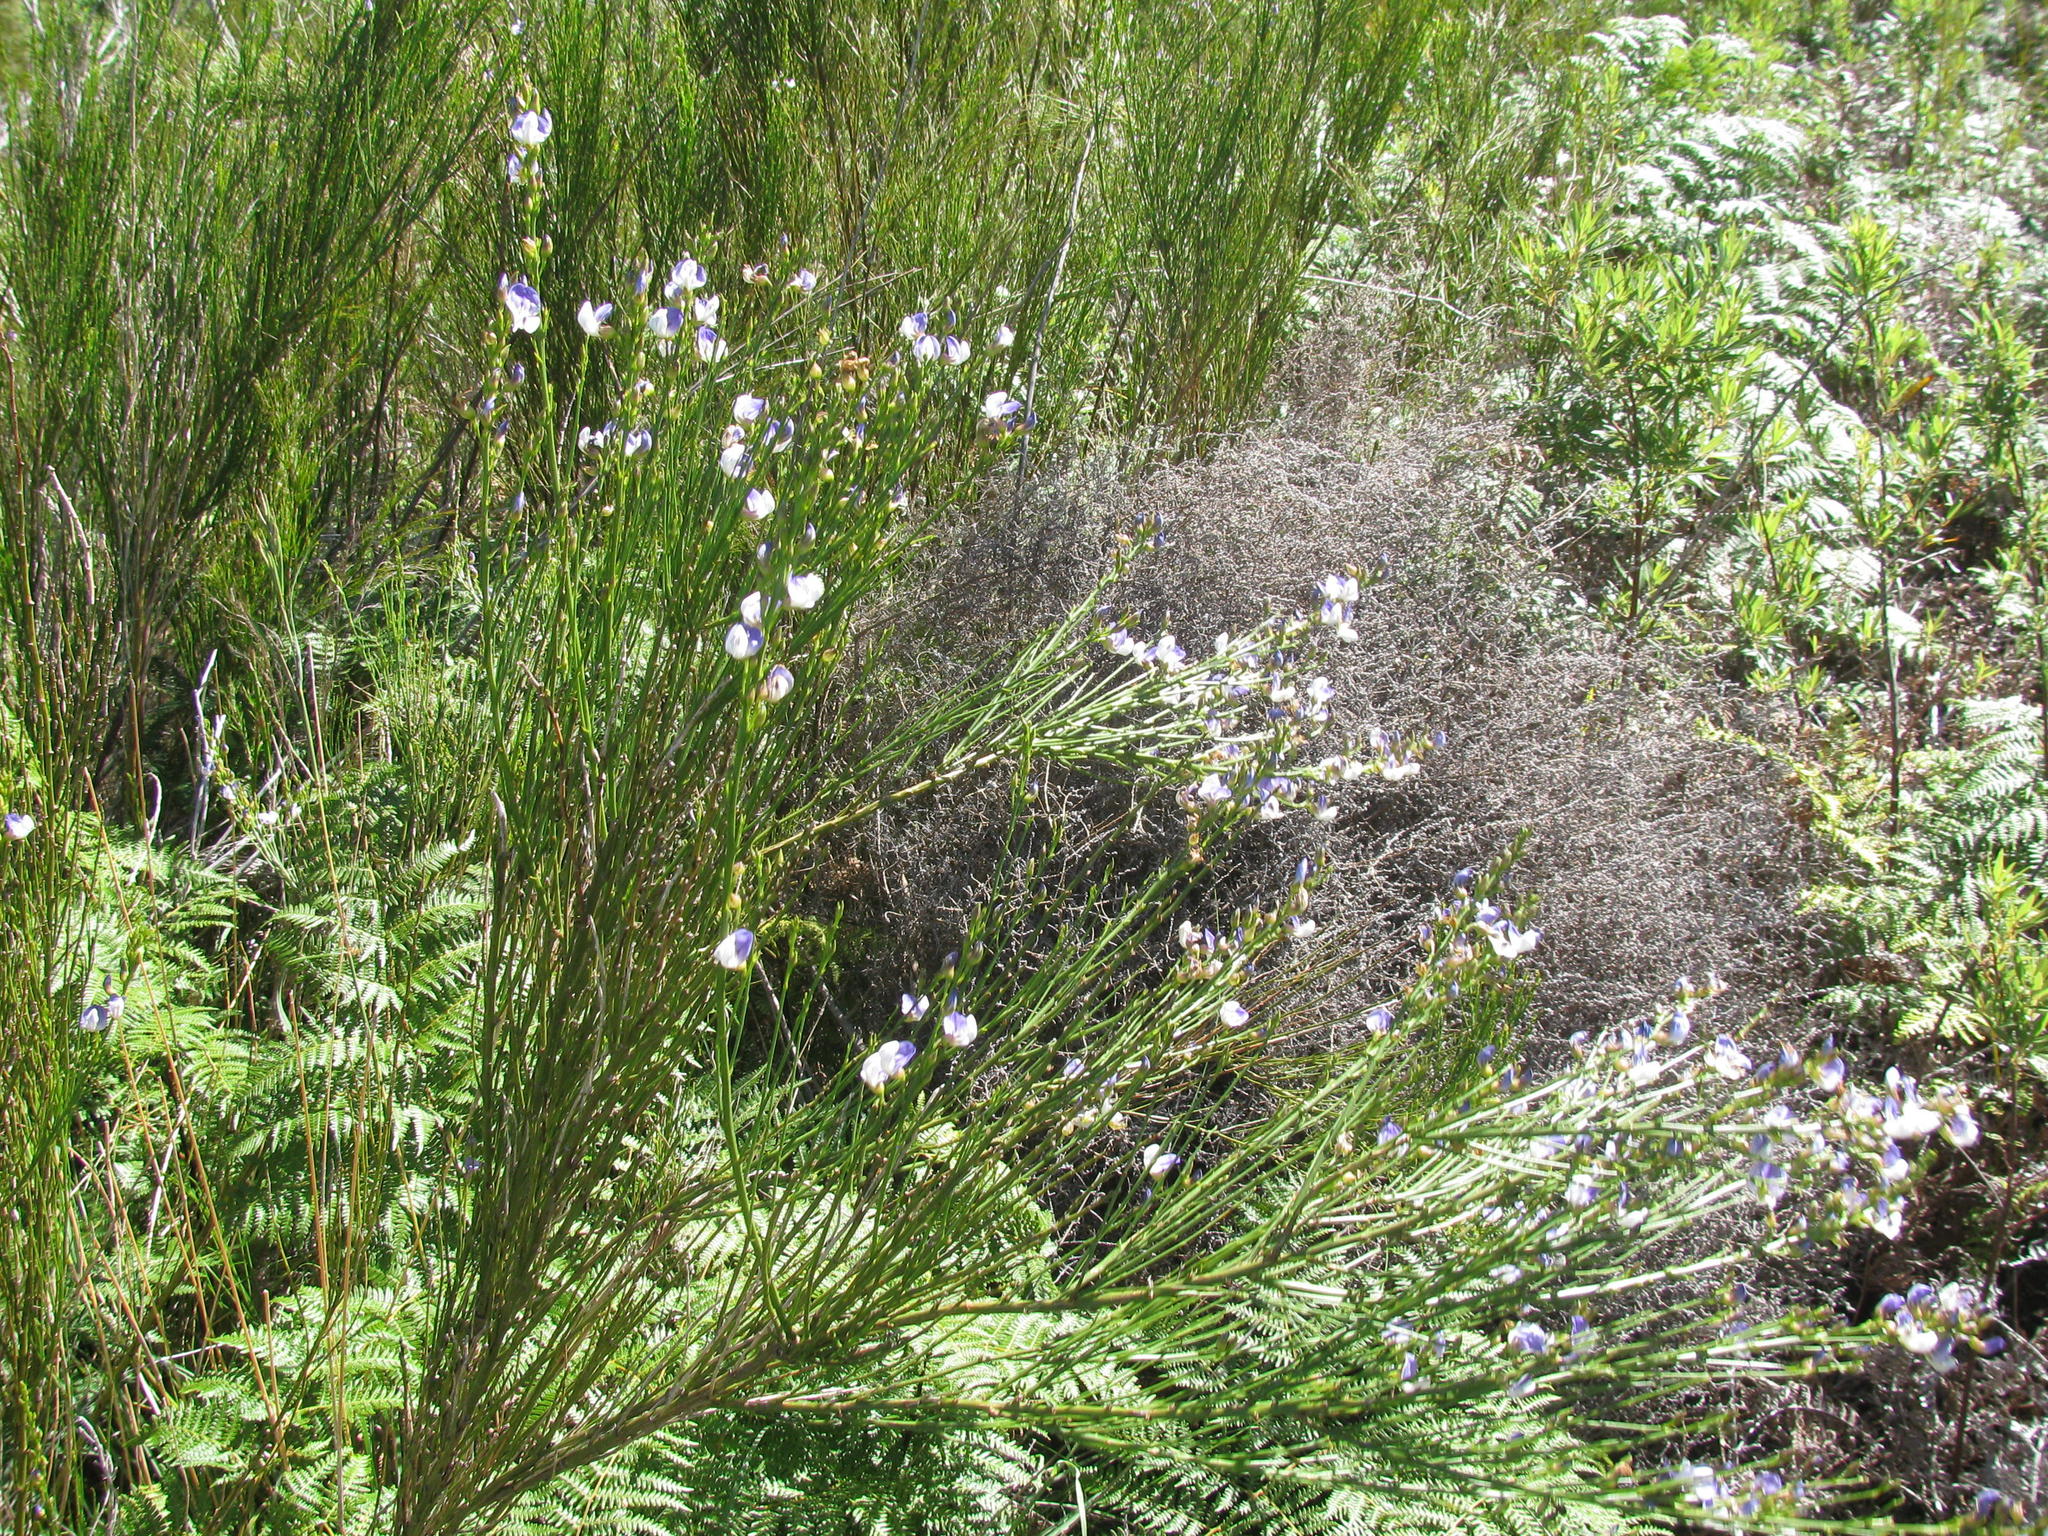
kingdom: Plantae
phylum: Tracheophyta
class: Magnoliopsida
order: Fabales
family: Fabaceae
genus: Psoralea
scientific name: Psoralea usitata
